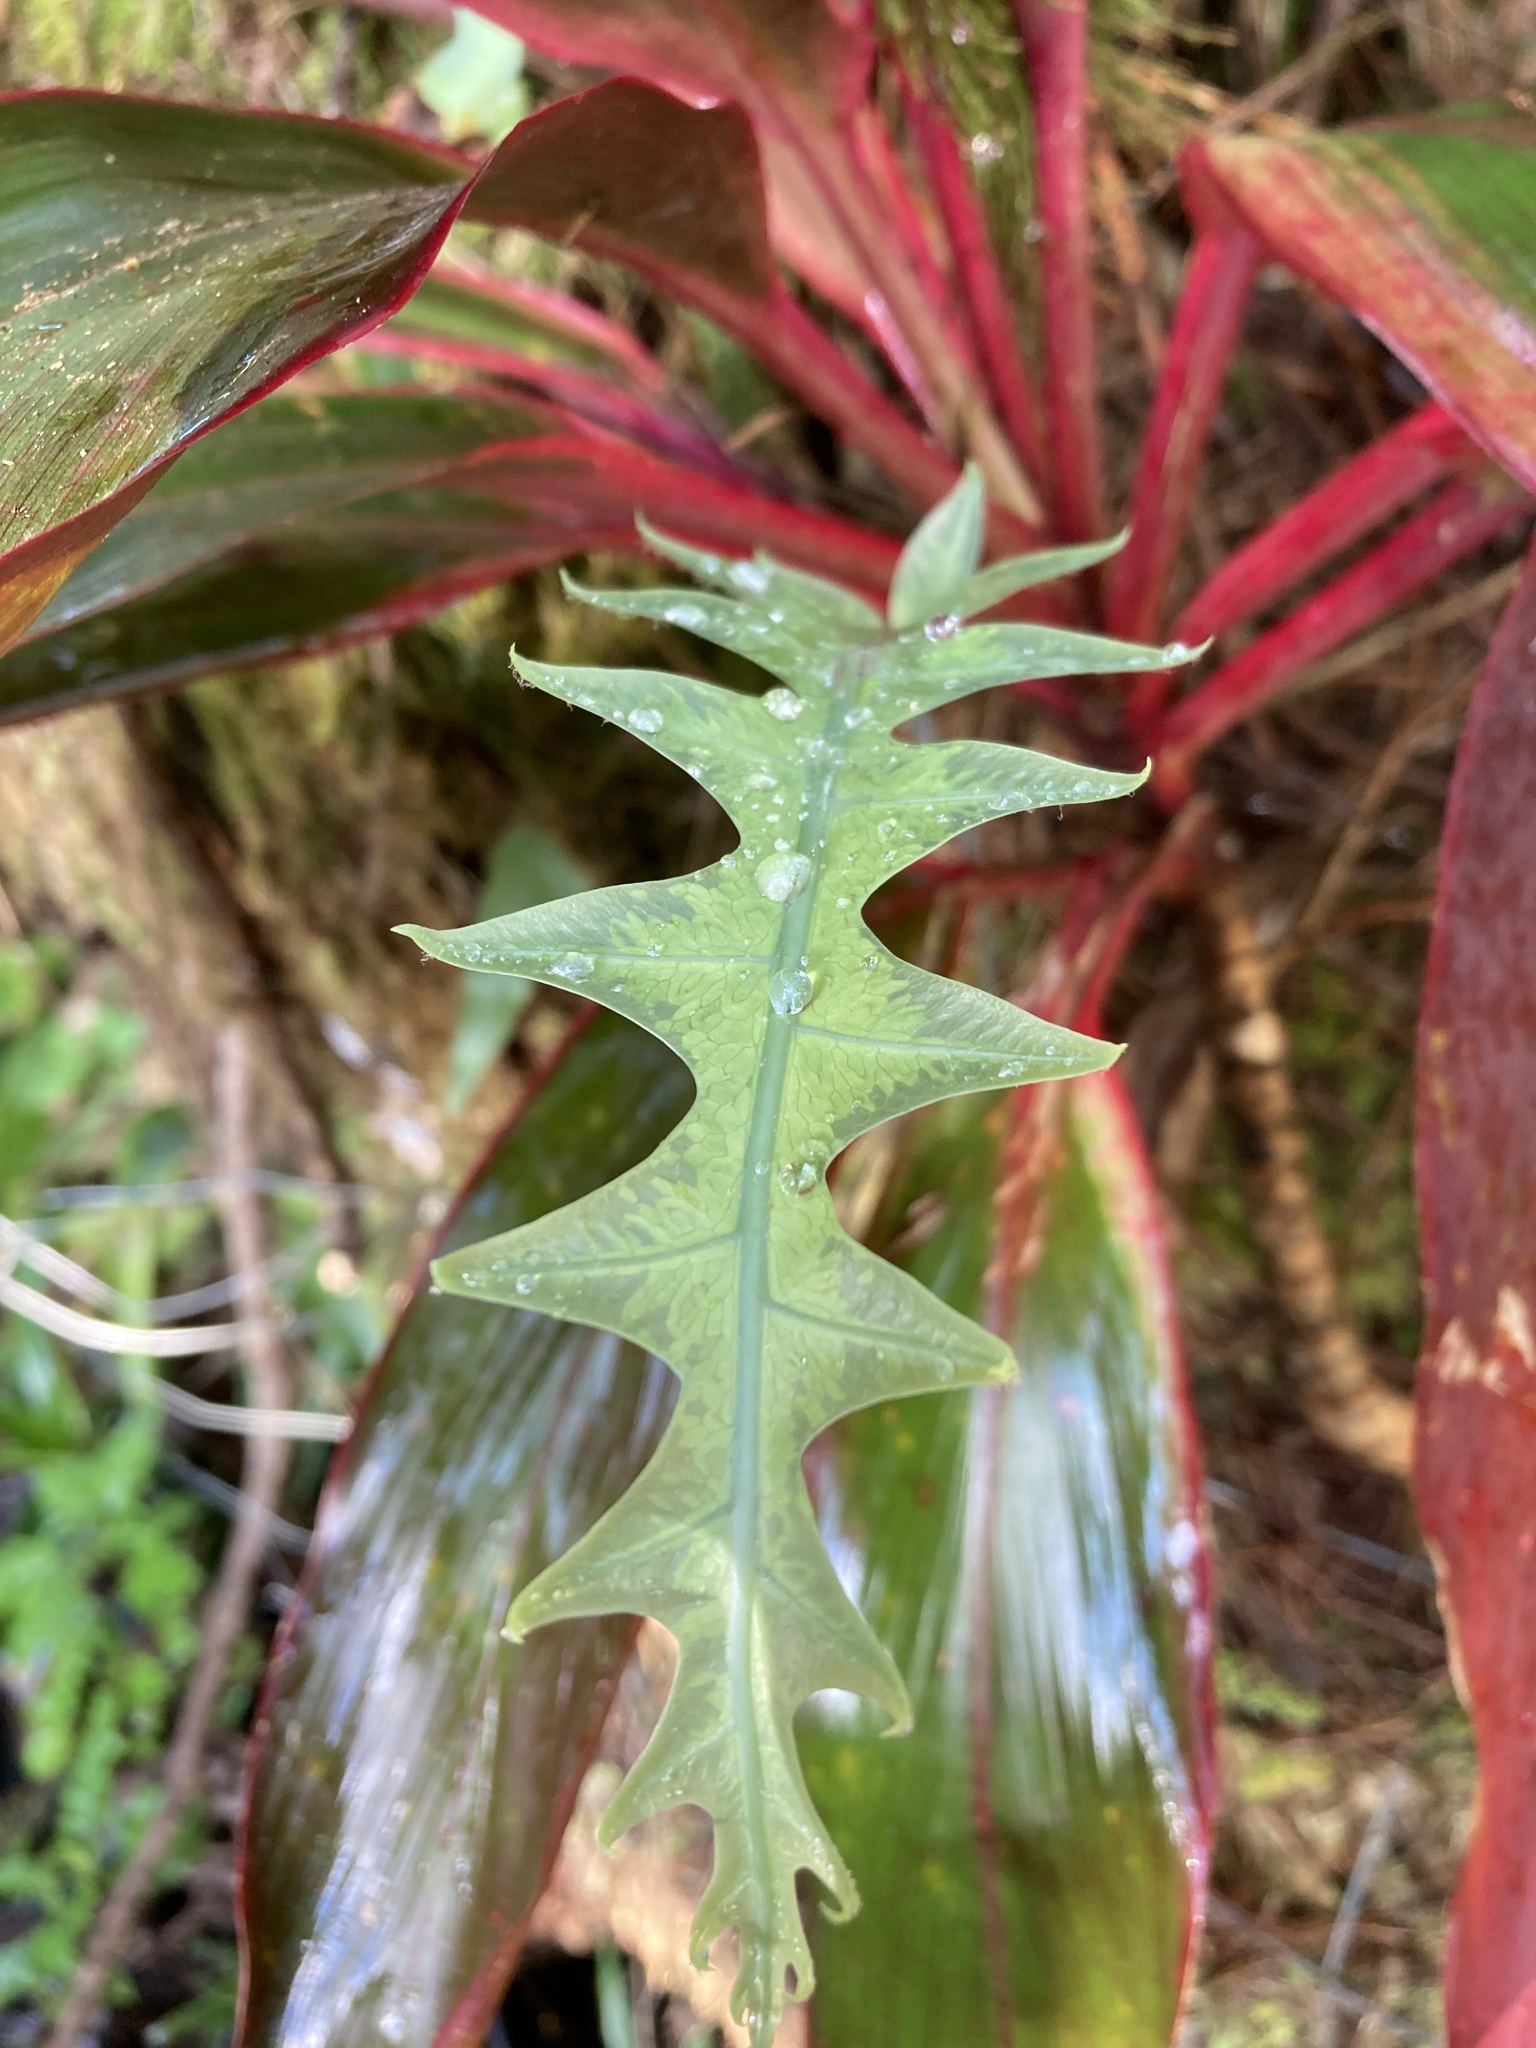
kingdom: Plantae
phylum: Tracheophyta
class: Polypodiopsida
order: Polypodiales
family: Polypodiaceae
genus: Phlebodium
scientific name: Phlebodium aureum
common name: Gold-foot fern
